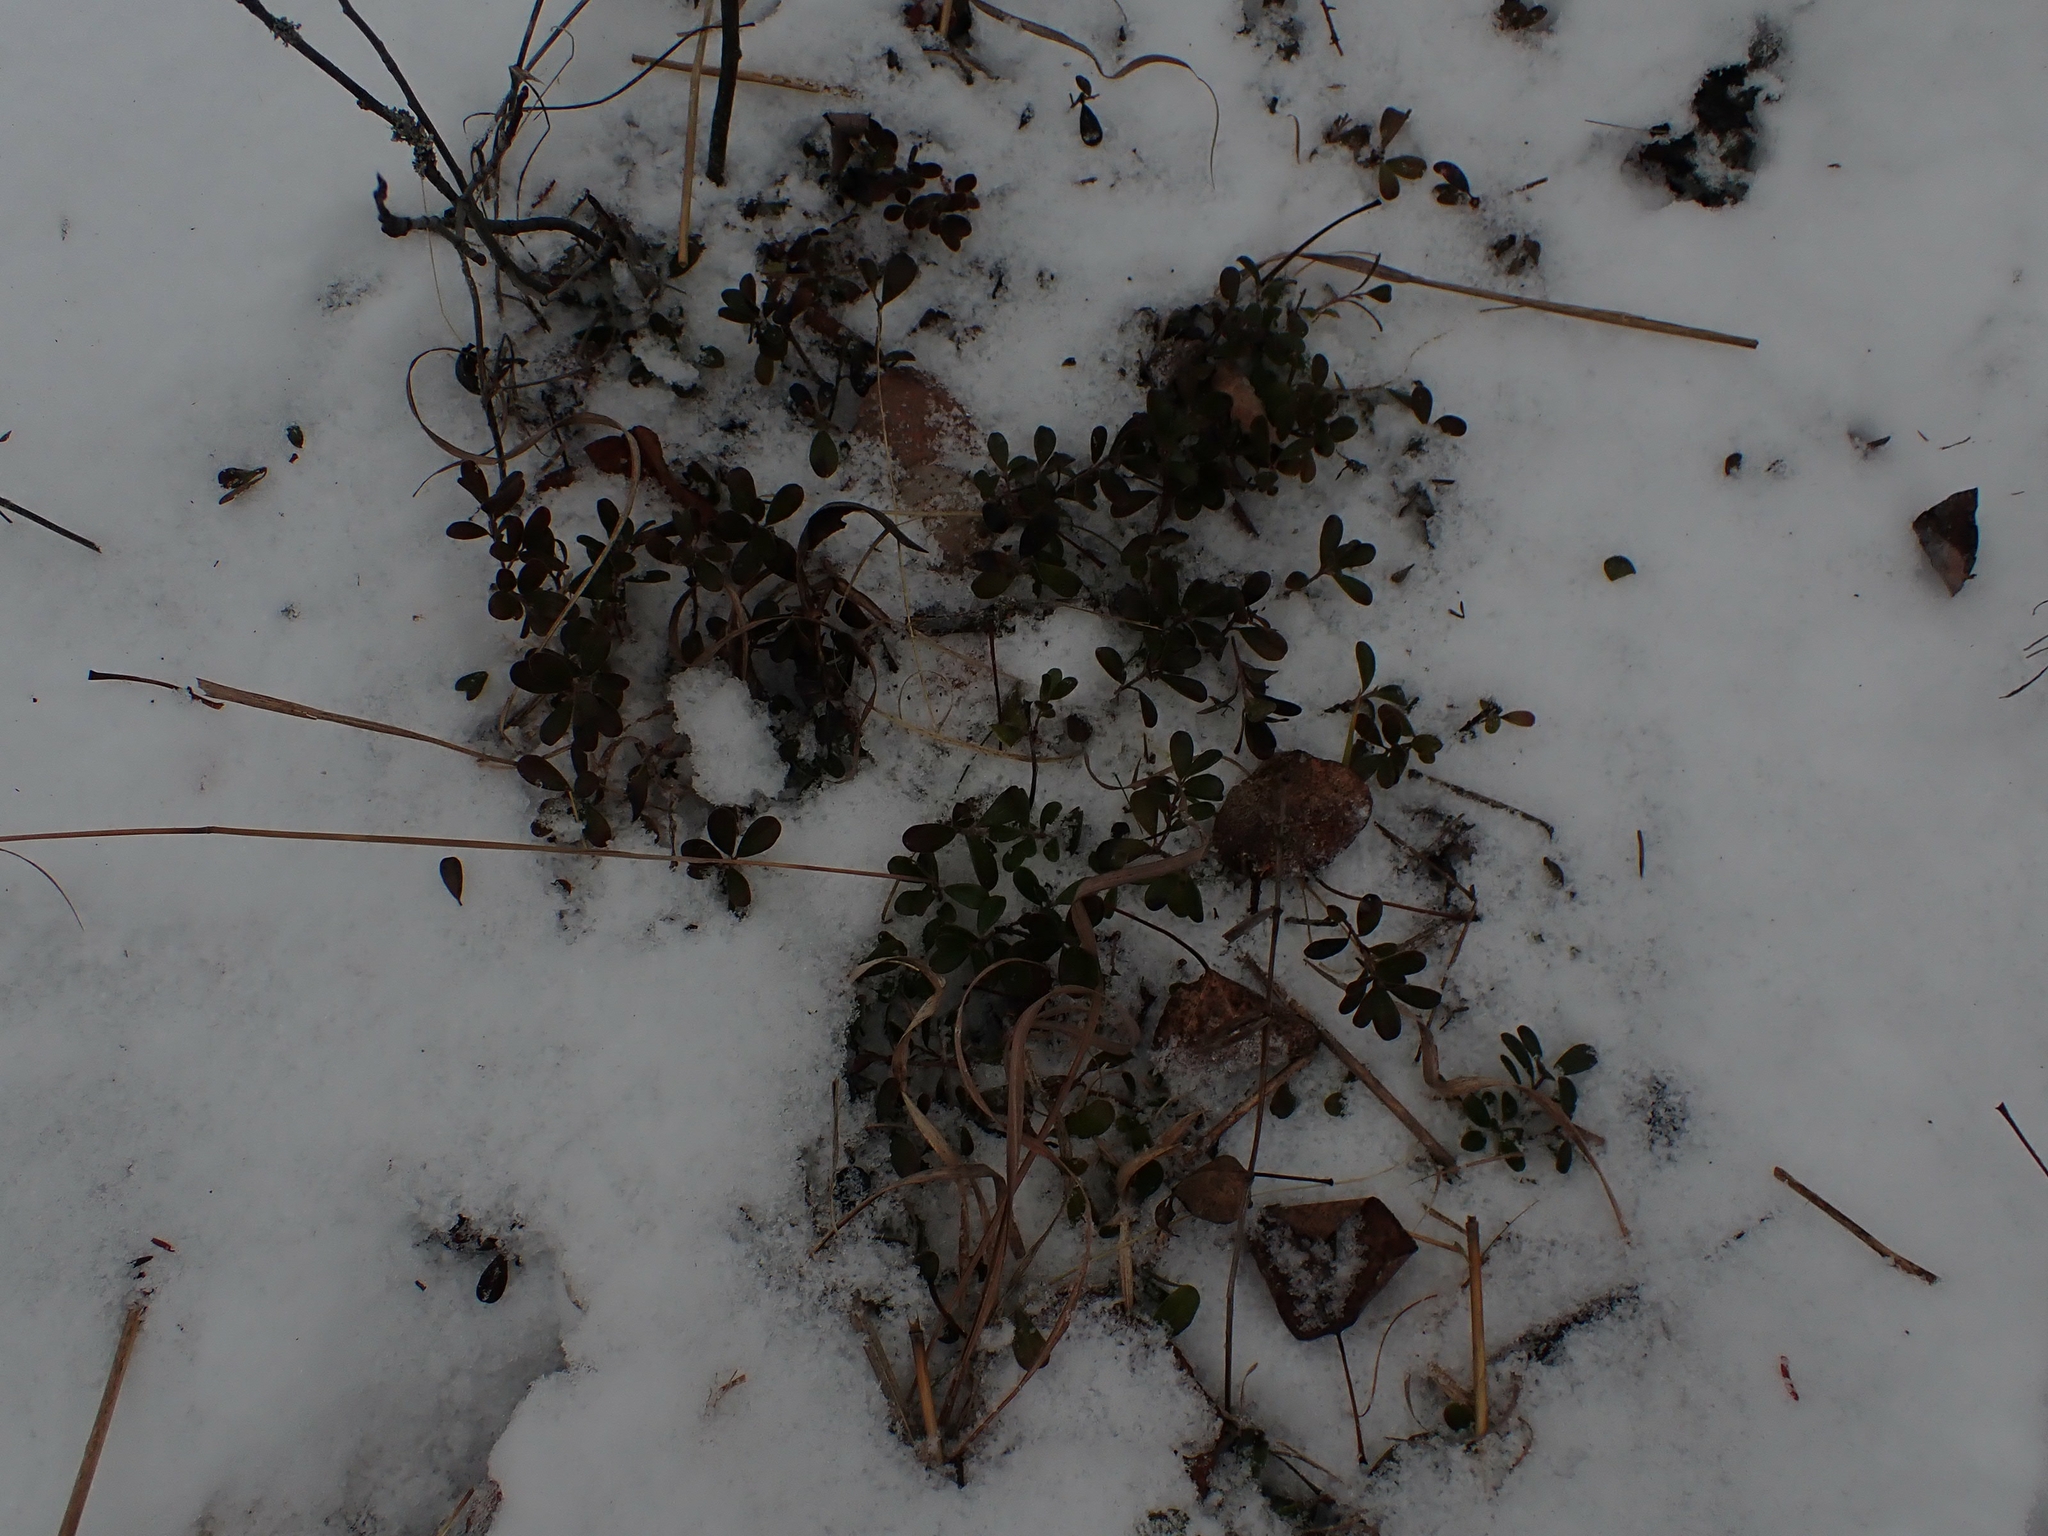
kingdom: Plantae
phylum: Tracheophyta
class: Magnoliopsida
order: Ericales
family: Ericaceae
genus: Arctostaphylos
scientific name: Arctostaphylos uva-ursi
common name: Bearberry
